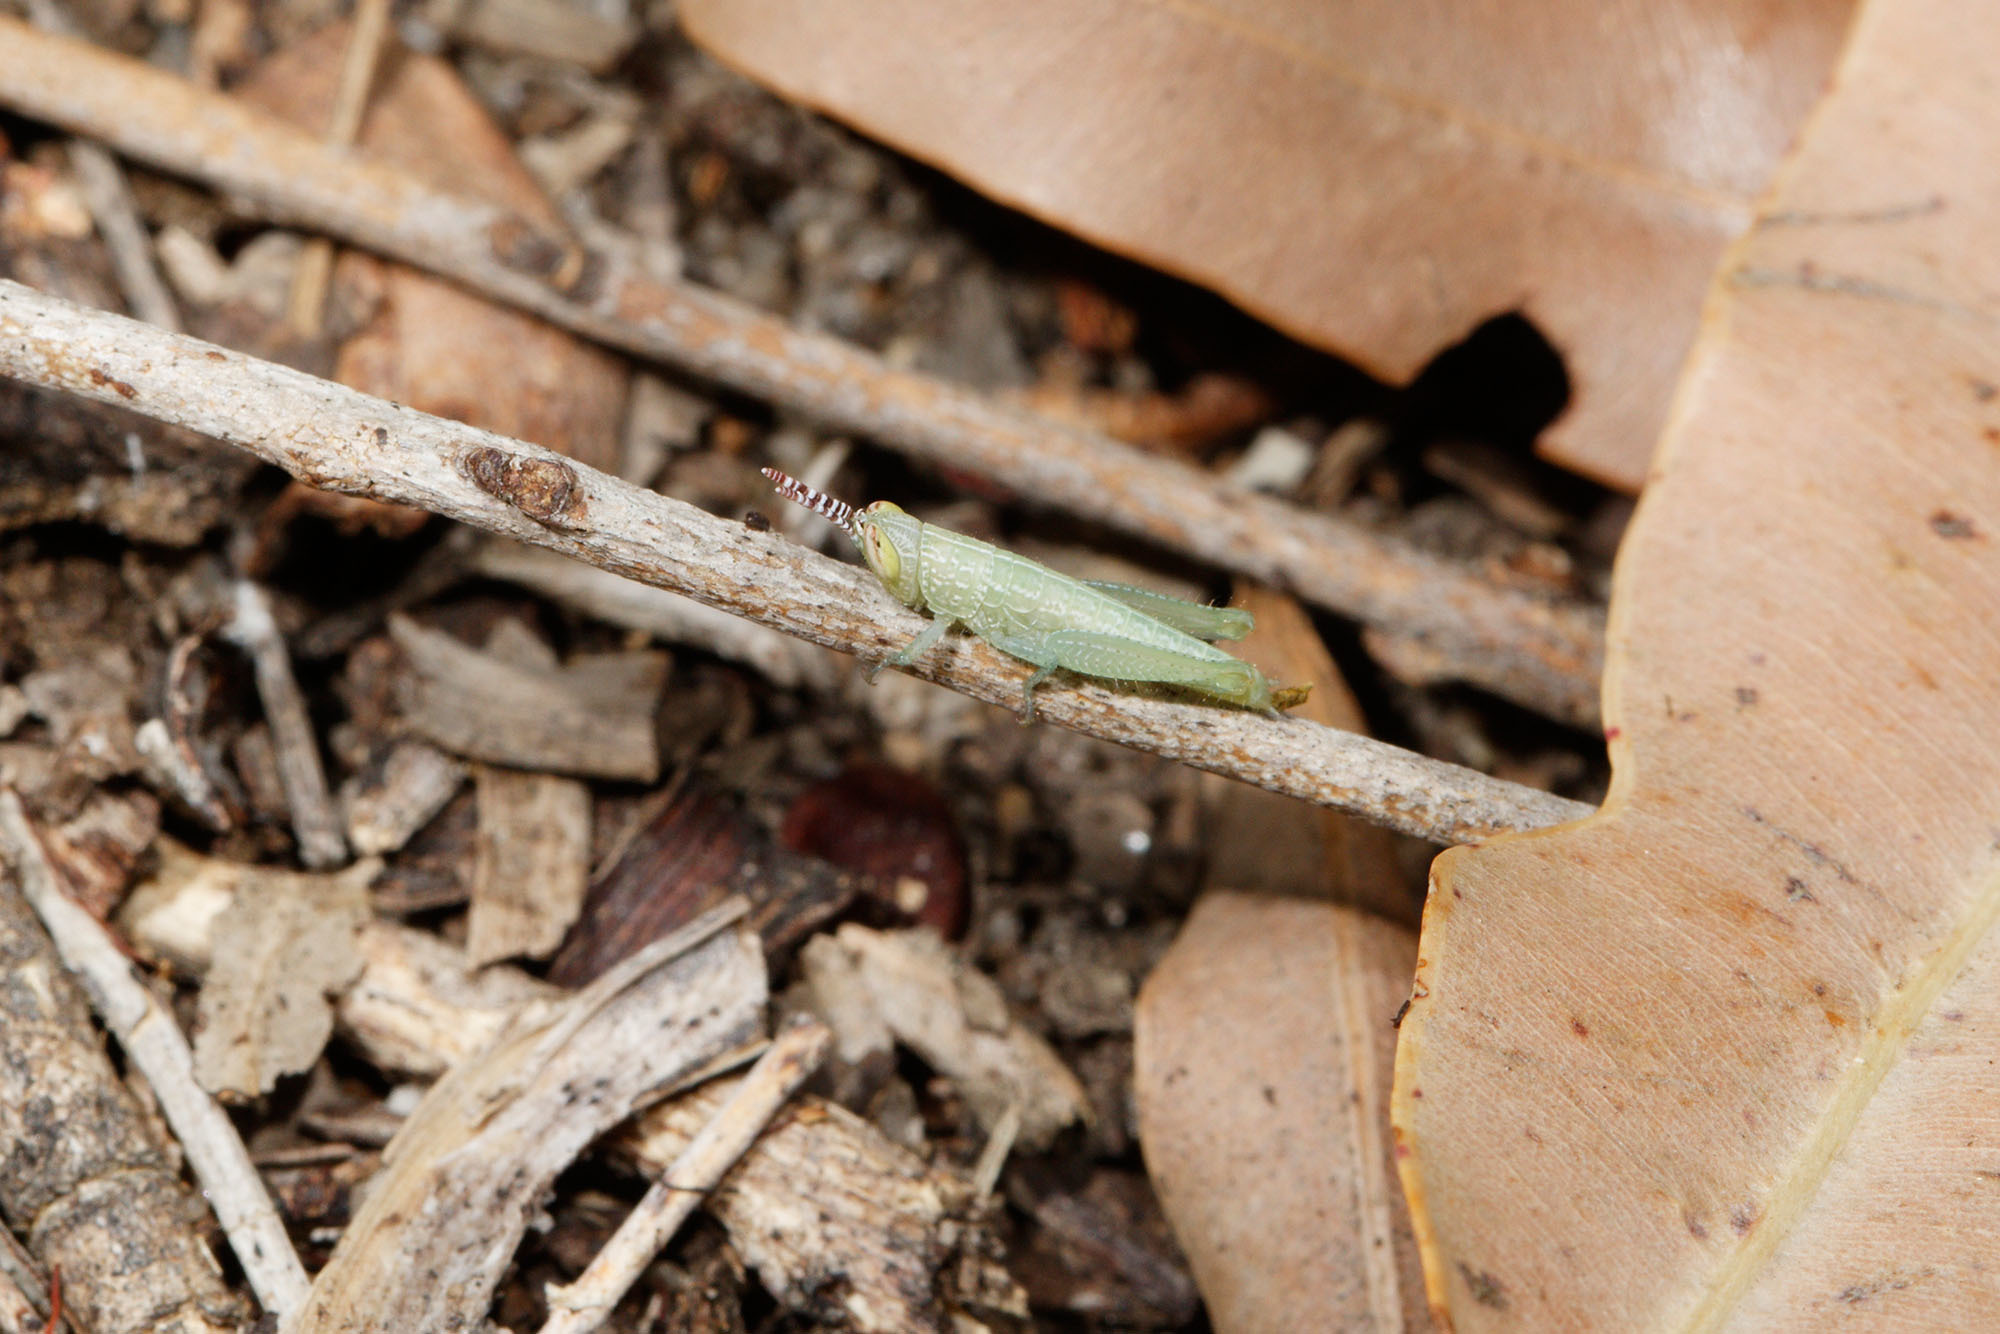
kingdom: Animalia
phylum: Arthropoda
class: Insecta
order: Orthoptera
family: Acrididae
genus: Stenocatantops
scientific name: Stenocatantops angustifrons
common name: Common tropical sharptail
